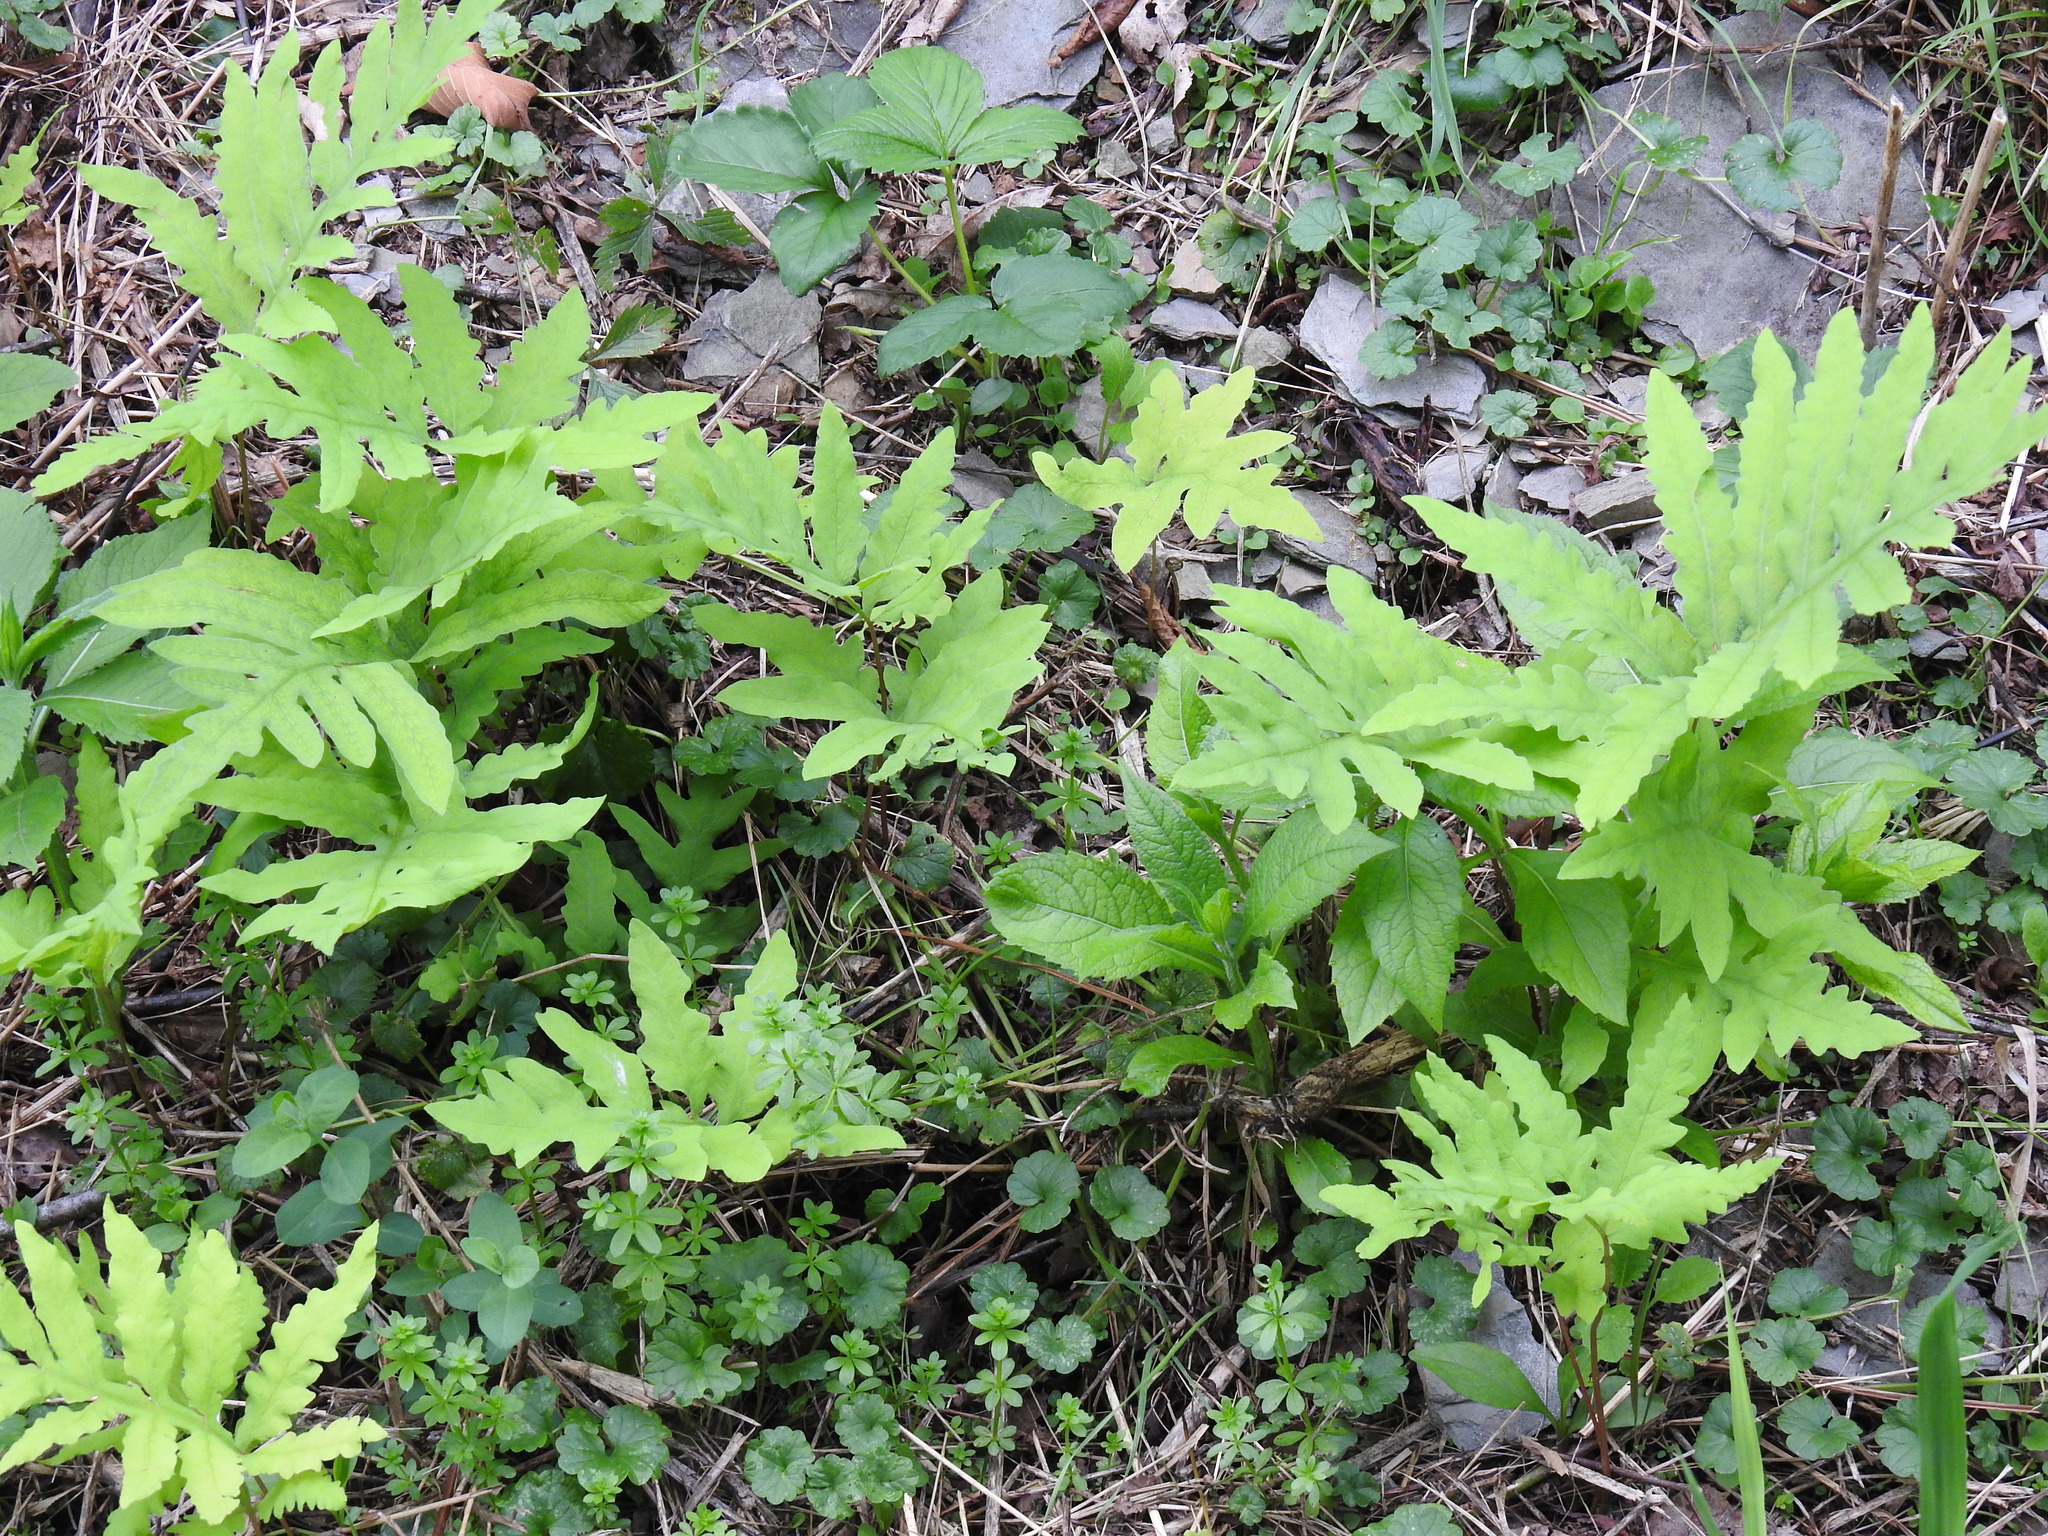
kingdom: Plantae
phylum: Tracheophyta
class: Polypodiopsida
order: Polypodiales
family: Onocleaceae
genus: Onoclea
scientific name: Onoclea sensibilis
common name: Sensitive fern
